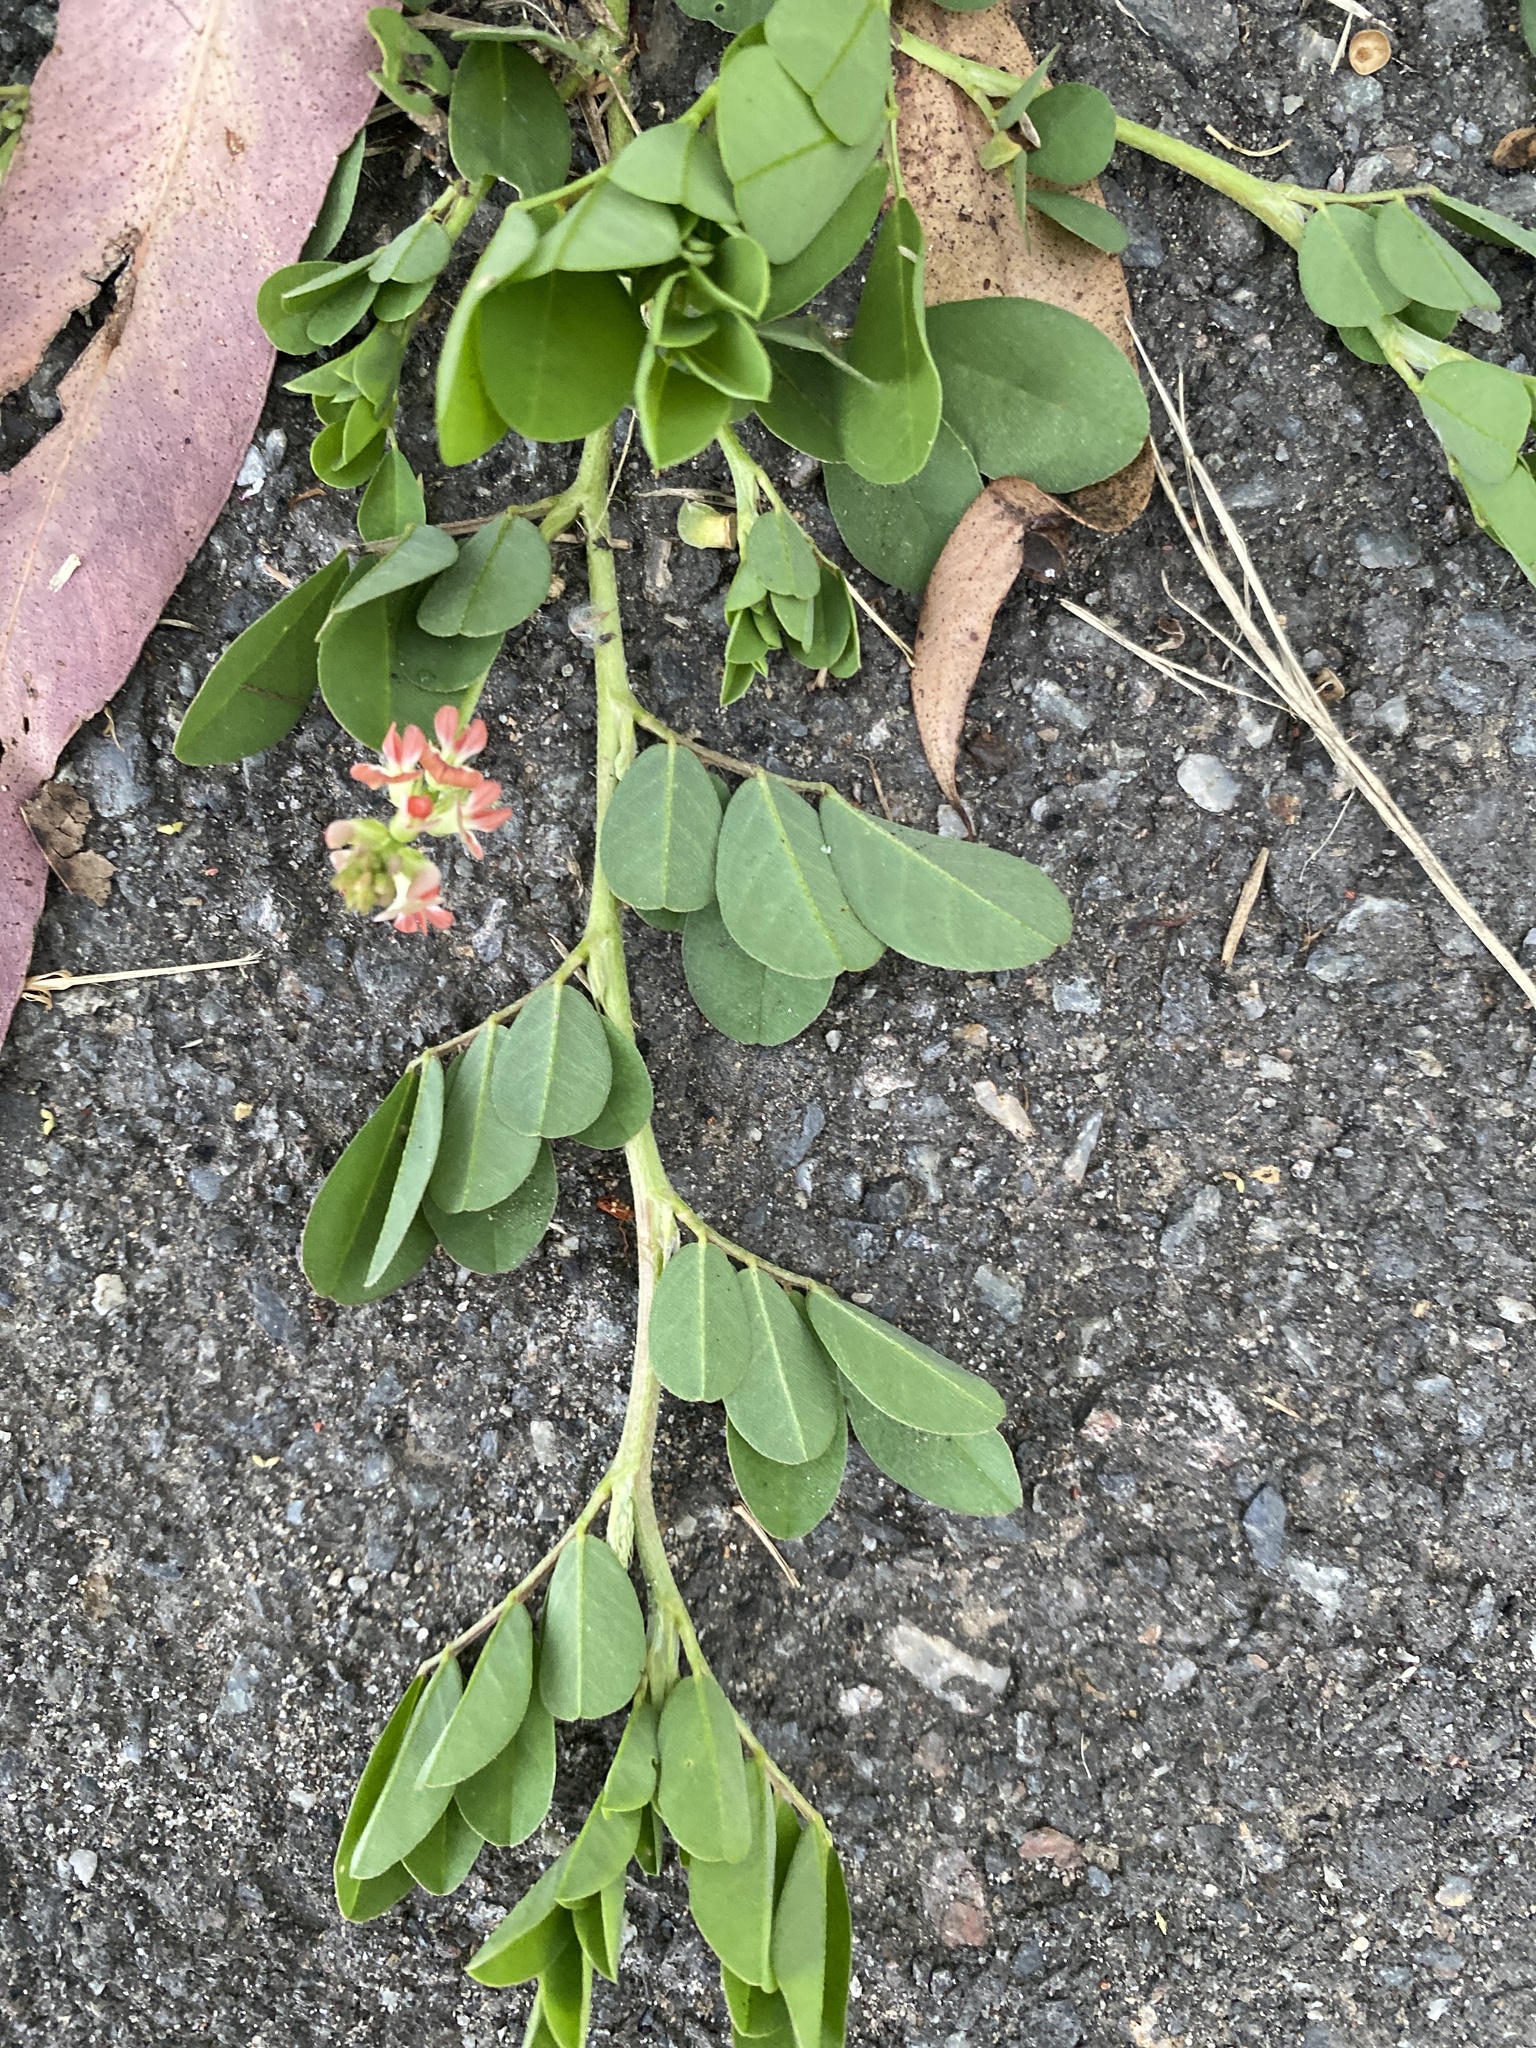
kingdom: Plantae
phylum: Tracheophyta
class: Magnoliopsida
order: Fabales
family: Fabaceae
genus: Indigofera
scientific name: Indigofera spicata
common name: Creeping indigo
